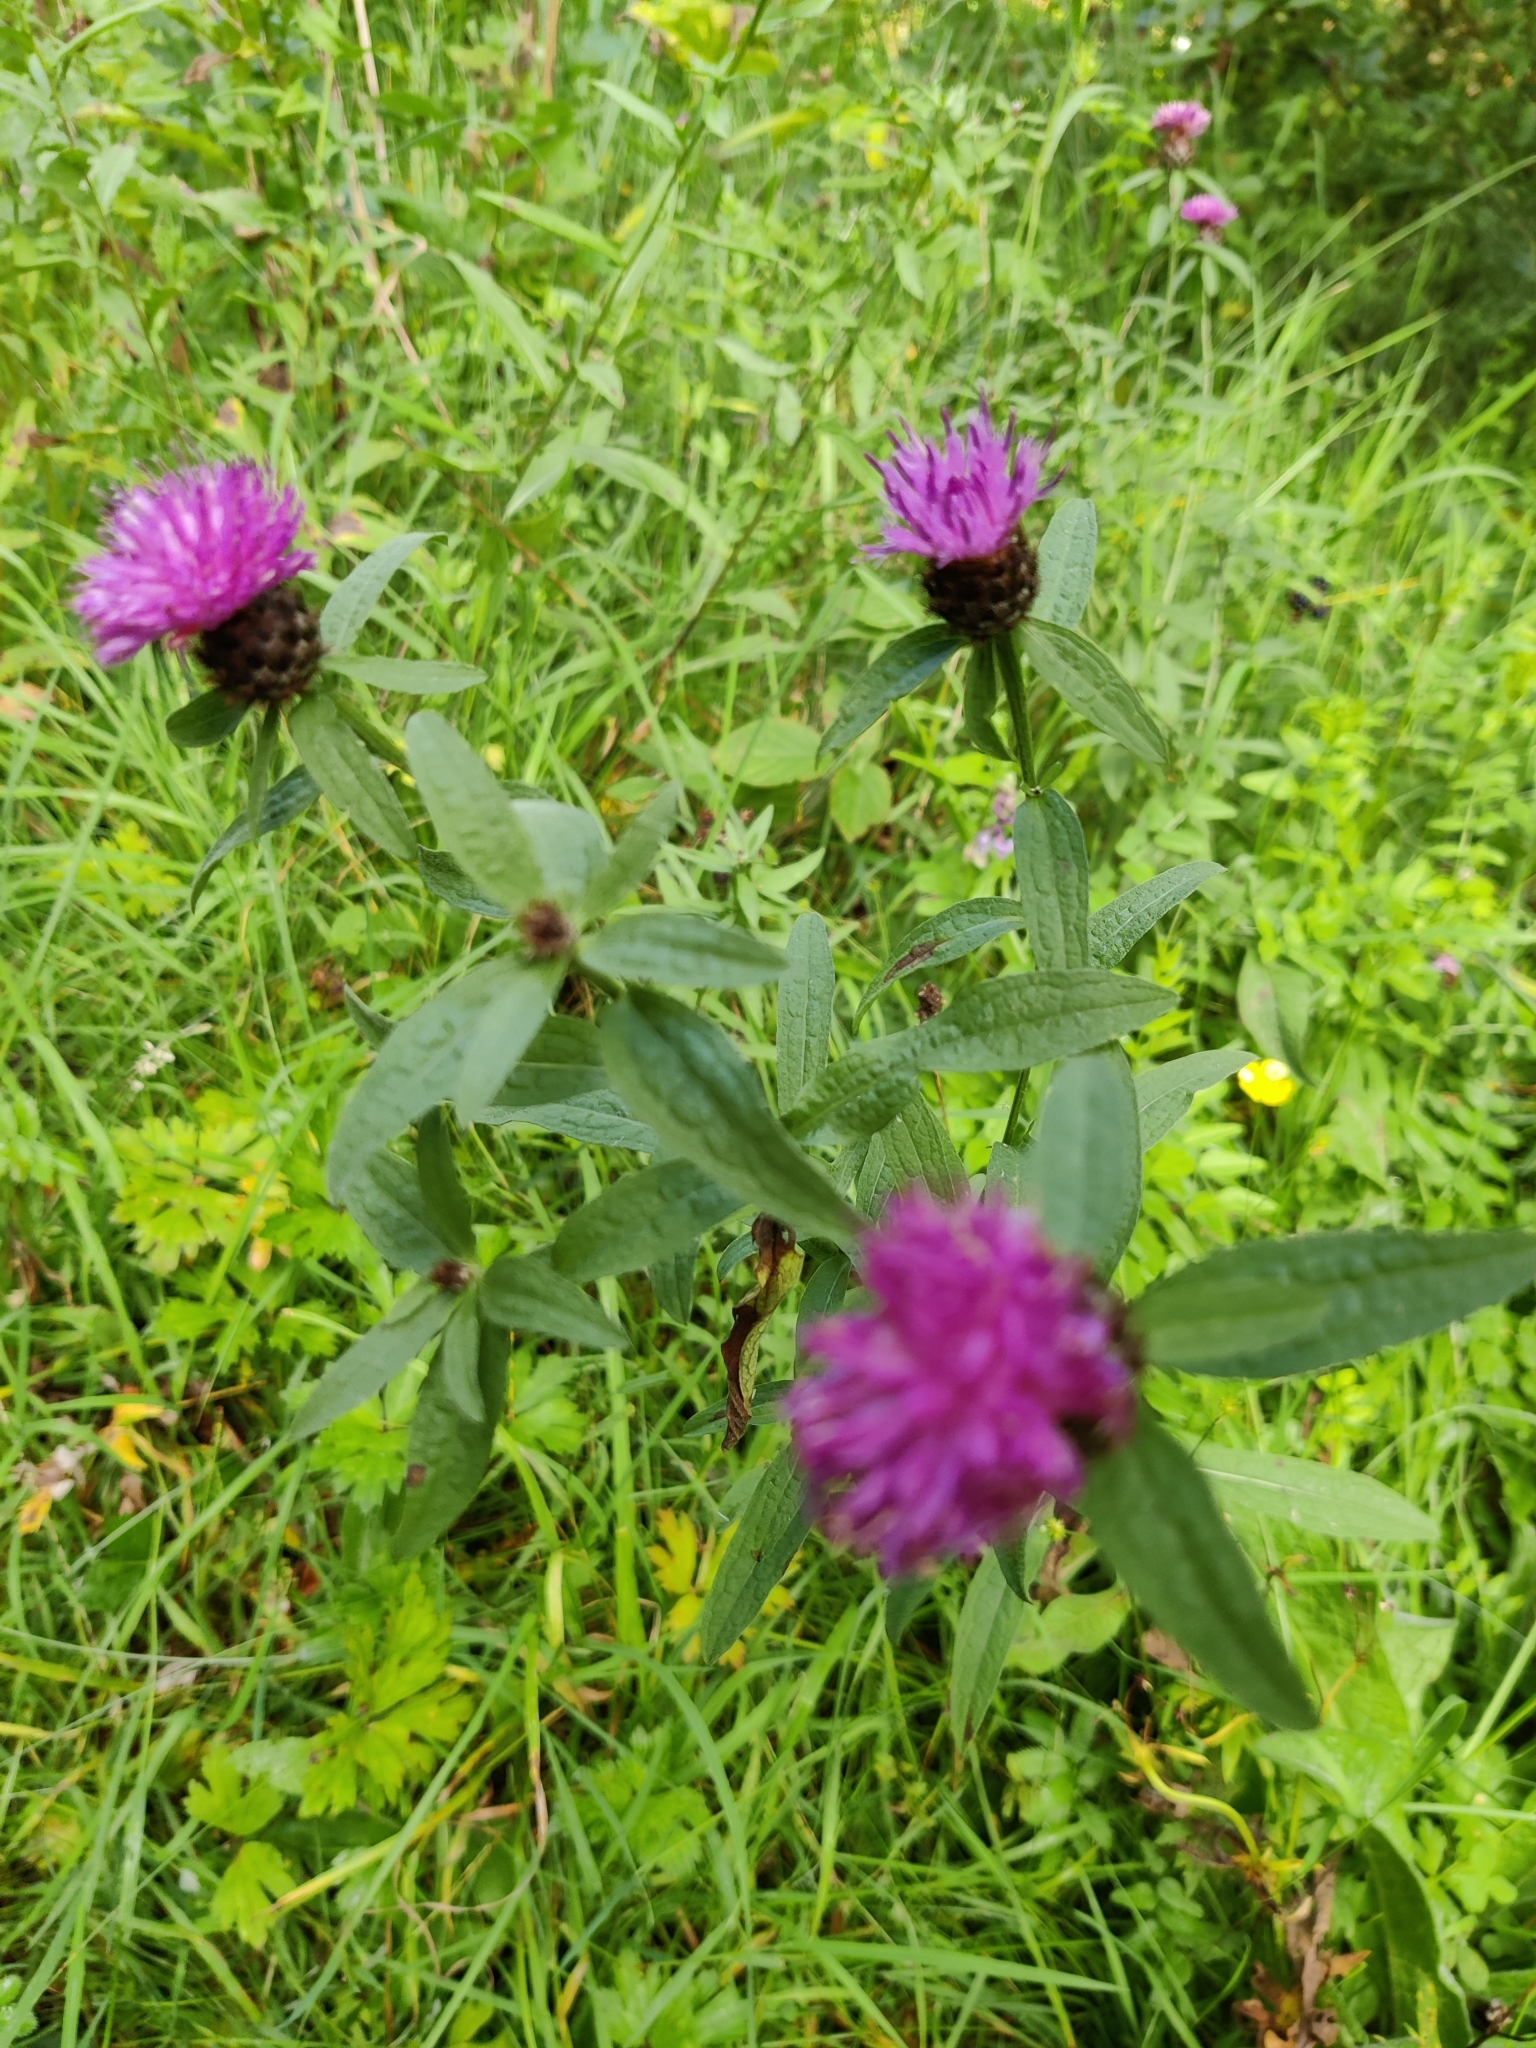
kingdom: Plantae
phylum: Tracheophyta
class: Magnoliopsida
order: Asterales
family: Asteraceae
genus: Centaurea
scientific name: Centaurea nigra
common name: Lesser knapweed
